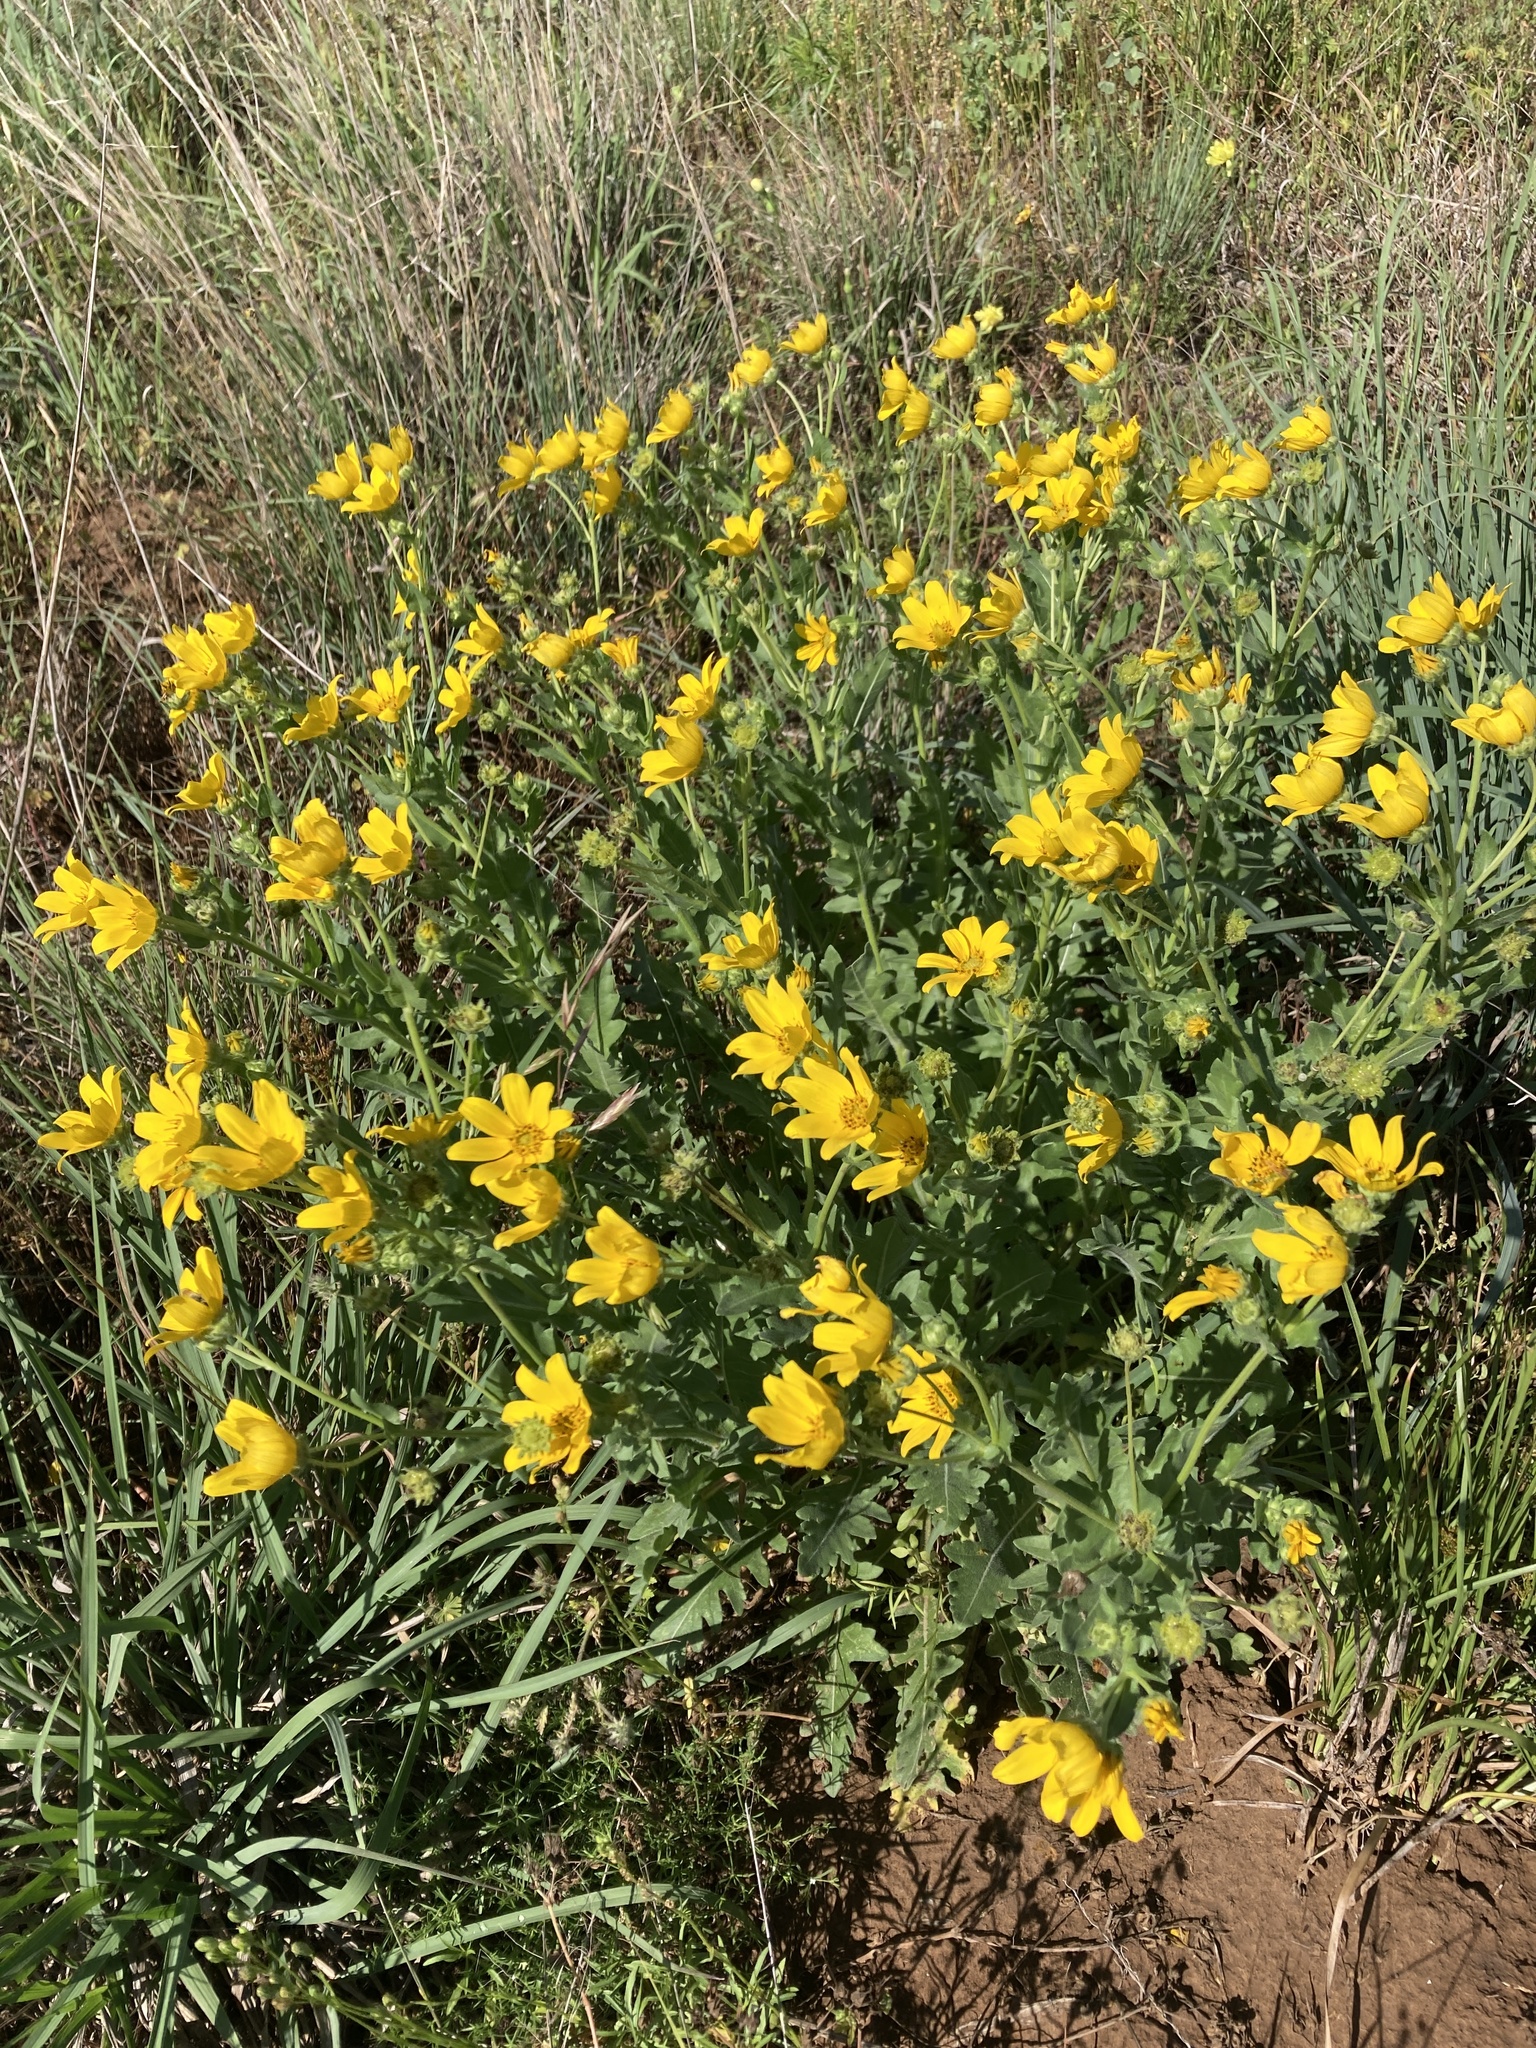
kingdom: Plantae
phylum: Tracheophyta
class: Magnoliopsida
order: Asterales
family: Asteraceae
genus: Engelmannia
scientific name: Engelmannia peristenia
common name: Engelmann's daisy
